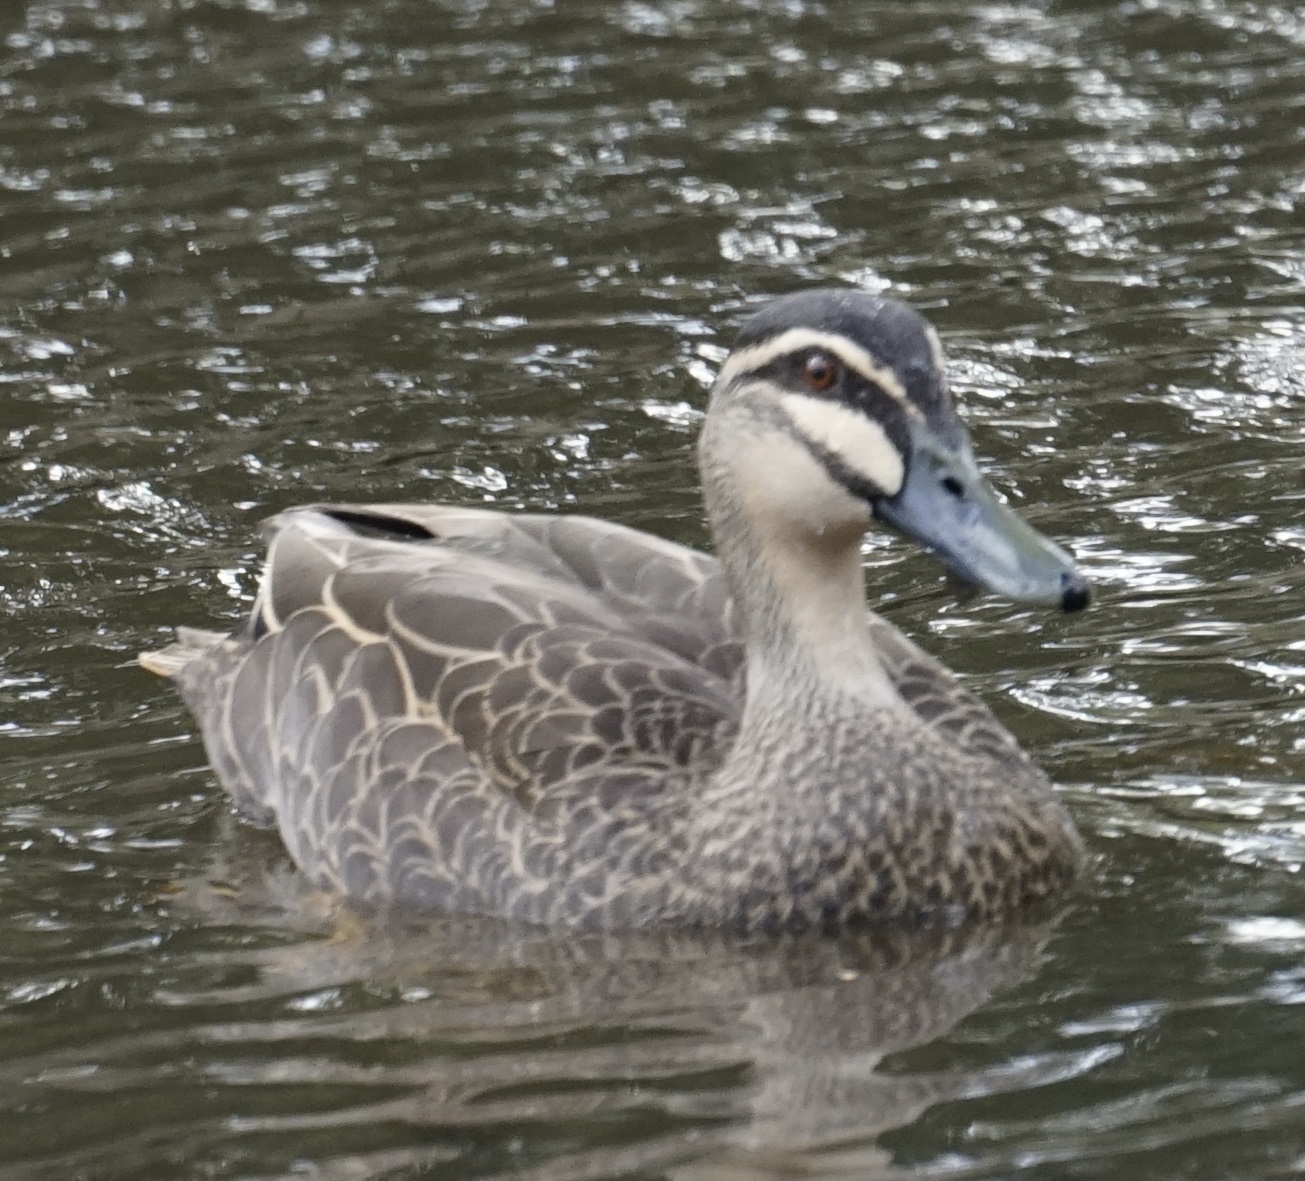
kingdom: Animalia
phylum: Chordata
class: Aves
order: Anseriformes
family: Anatidae
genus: Anas
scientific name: Anas superciliosa
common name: Pacific black duck
